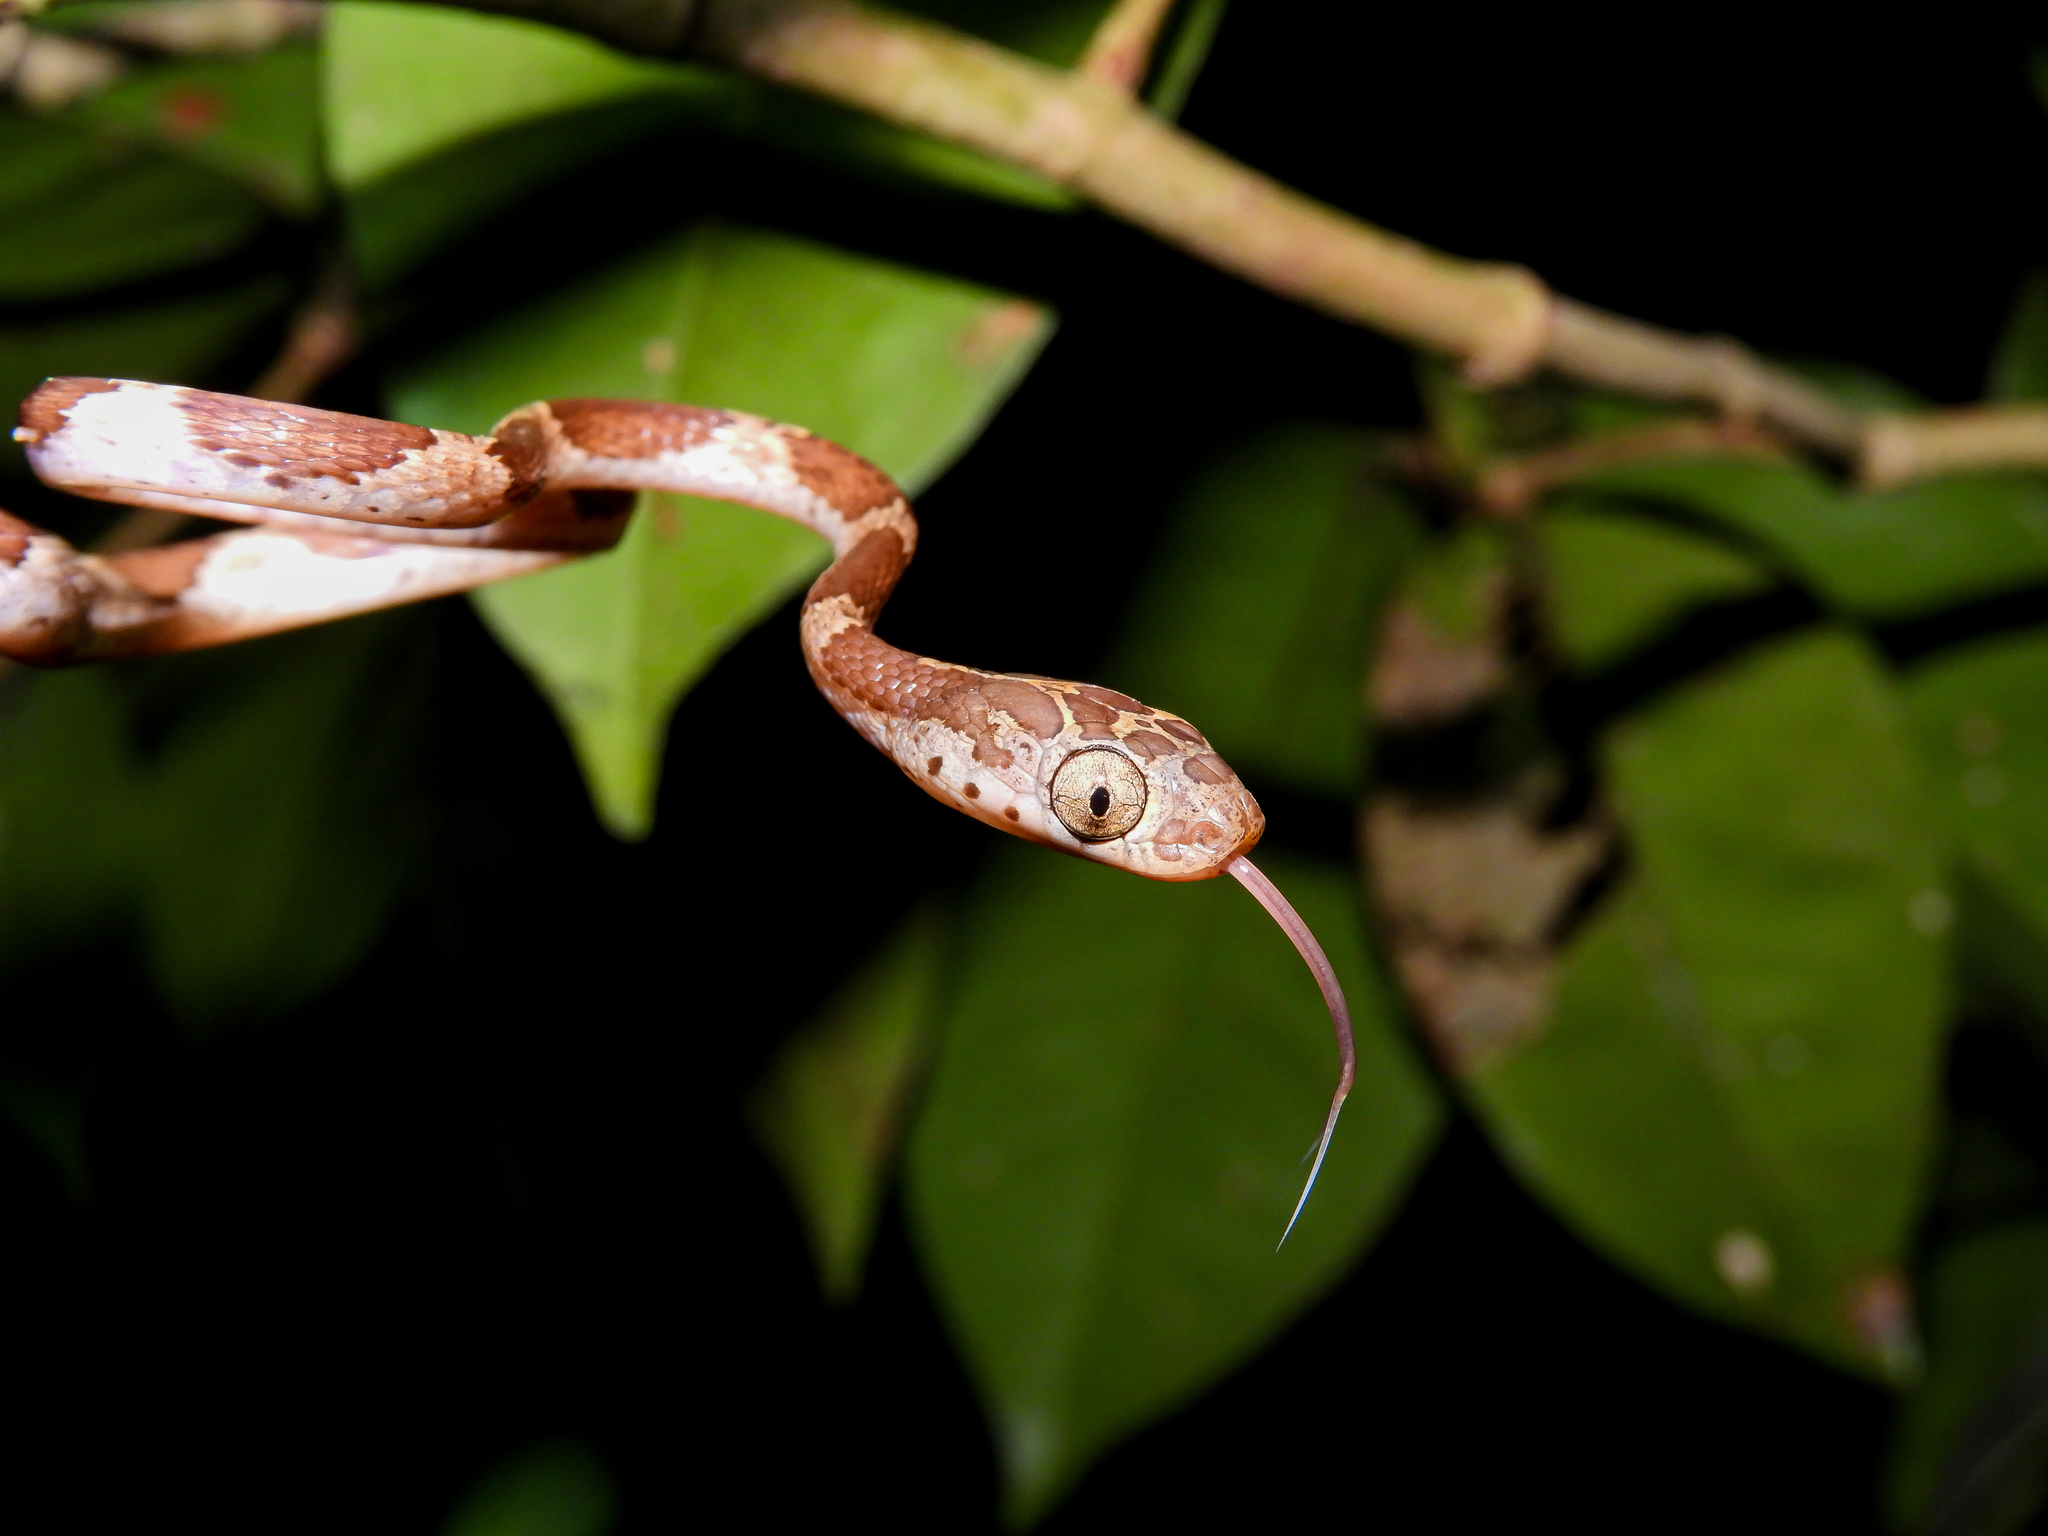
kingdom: Animalia
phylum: Chordata
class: Squamata
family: Colubridae
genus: Imantodes
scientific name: Imantodes cenchoa
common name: Blunthead tree snake
